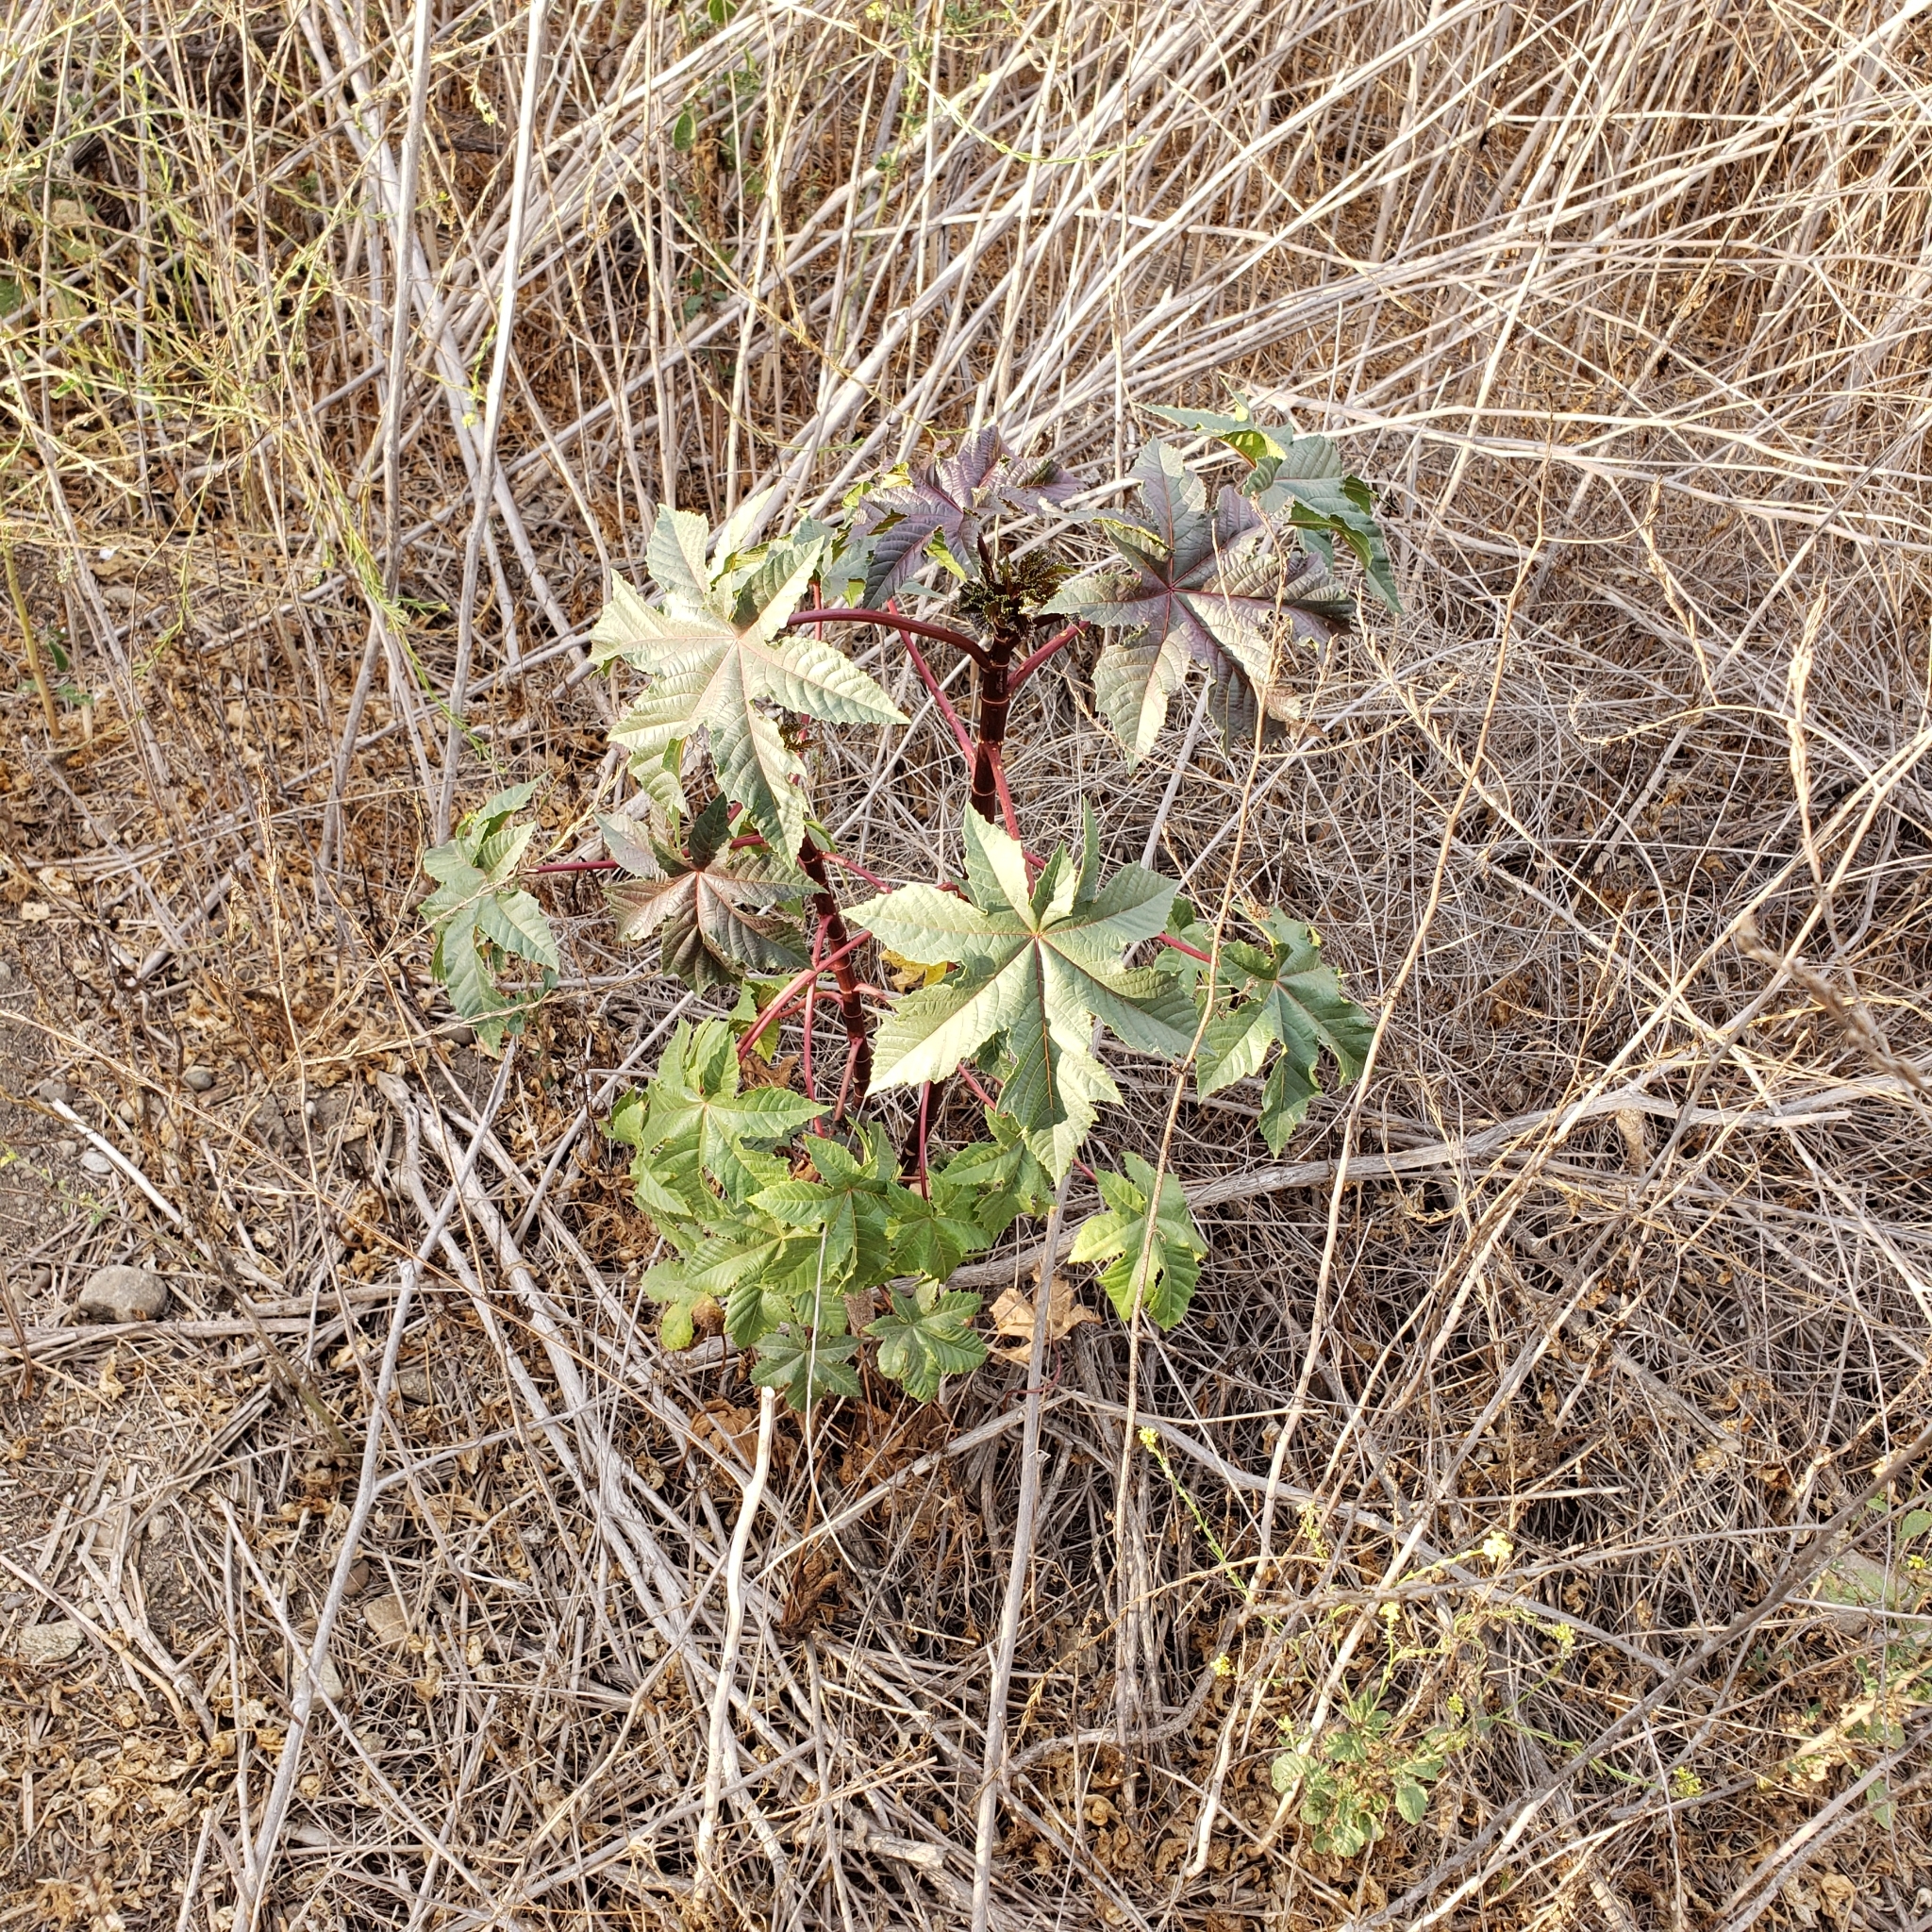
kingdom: Plantae
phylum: Tracheophyta
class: Magnoliopsida
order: Malpighiales
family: Euphorbiaceae
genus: Ricinus
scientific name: Ricinus communis
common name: Castor-oil-plant
